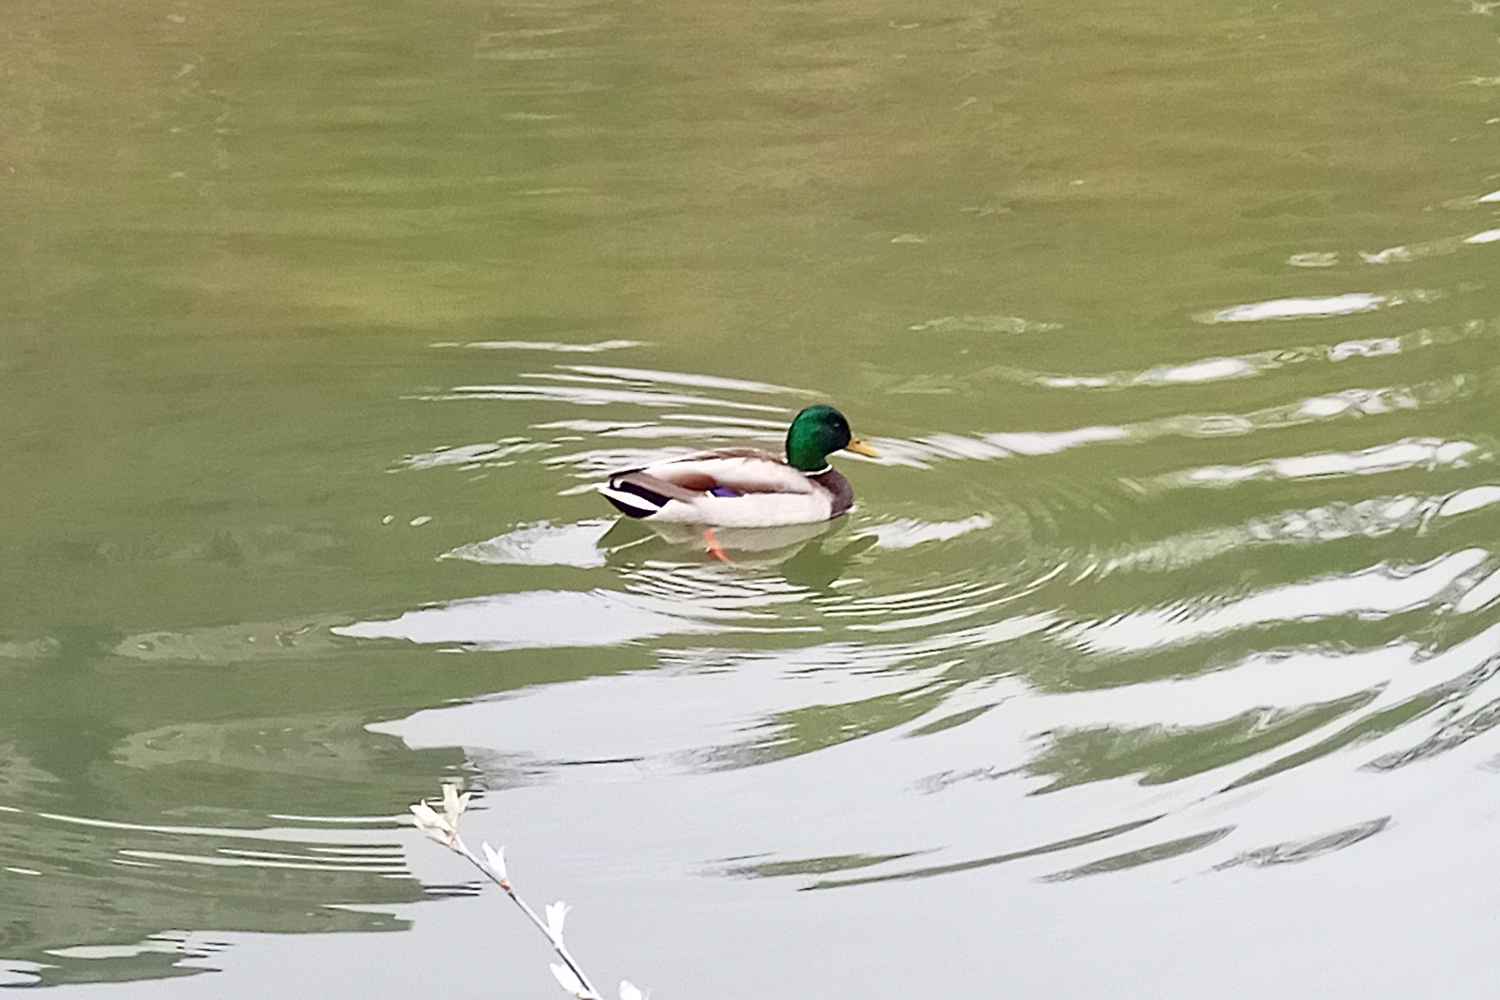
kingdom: Animalia
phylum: Chordata
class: Aves
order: Anseriformes
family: Anatidae
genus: Anas
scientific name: Anas platyrhynchos
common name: Mallard
